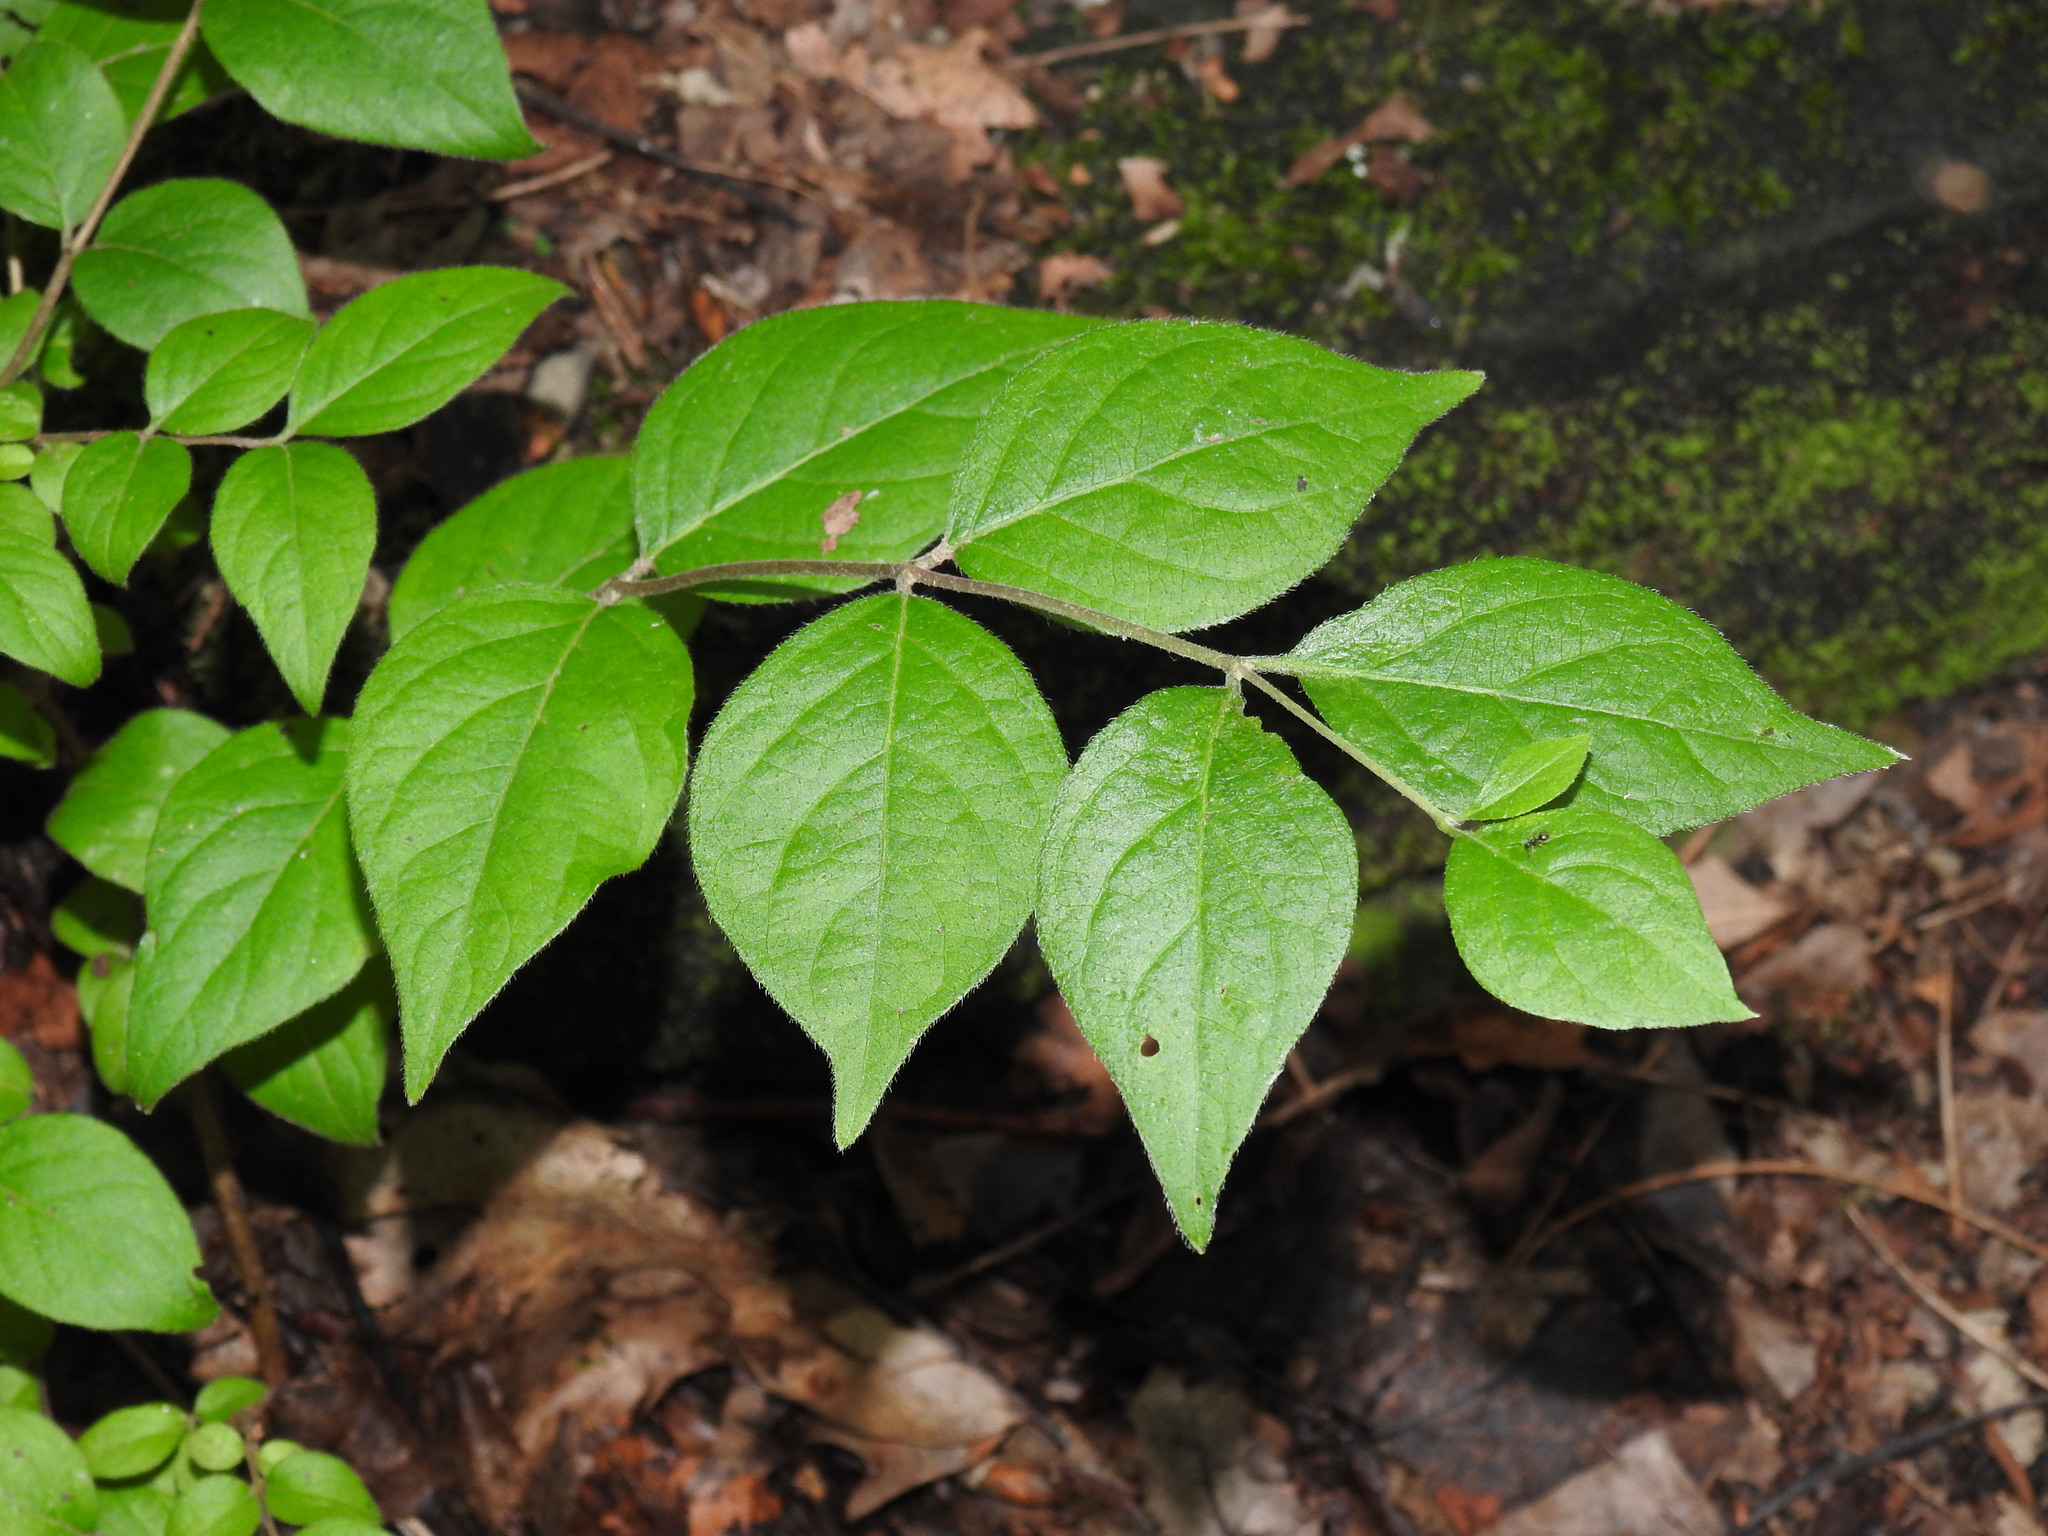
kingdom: Plantae
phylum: Tracheophyta
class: Magnoliopsida
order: Dipsacales
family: Caprifoliaceae
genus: Lonicera
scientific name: Lonicera maackii
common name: Amur honeysuckle
